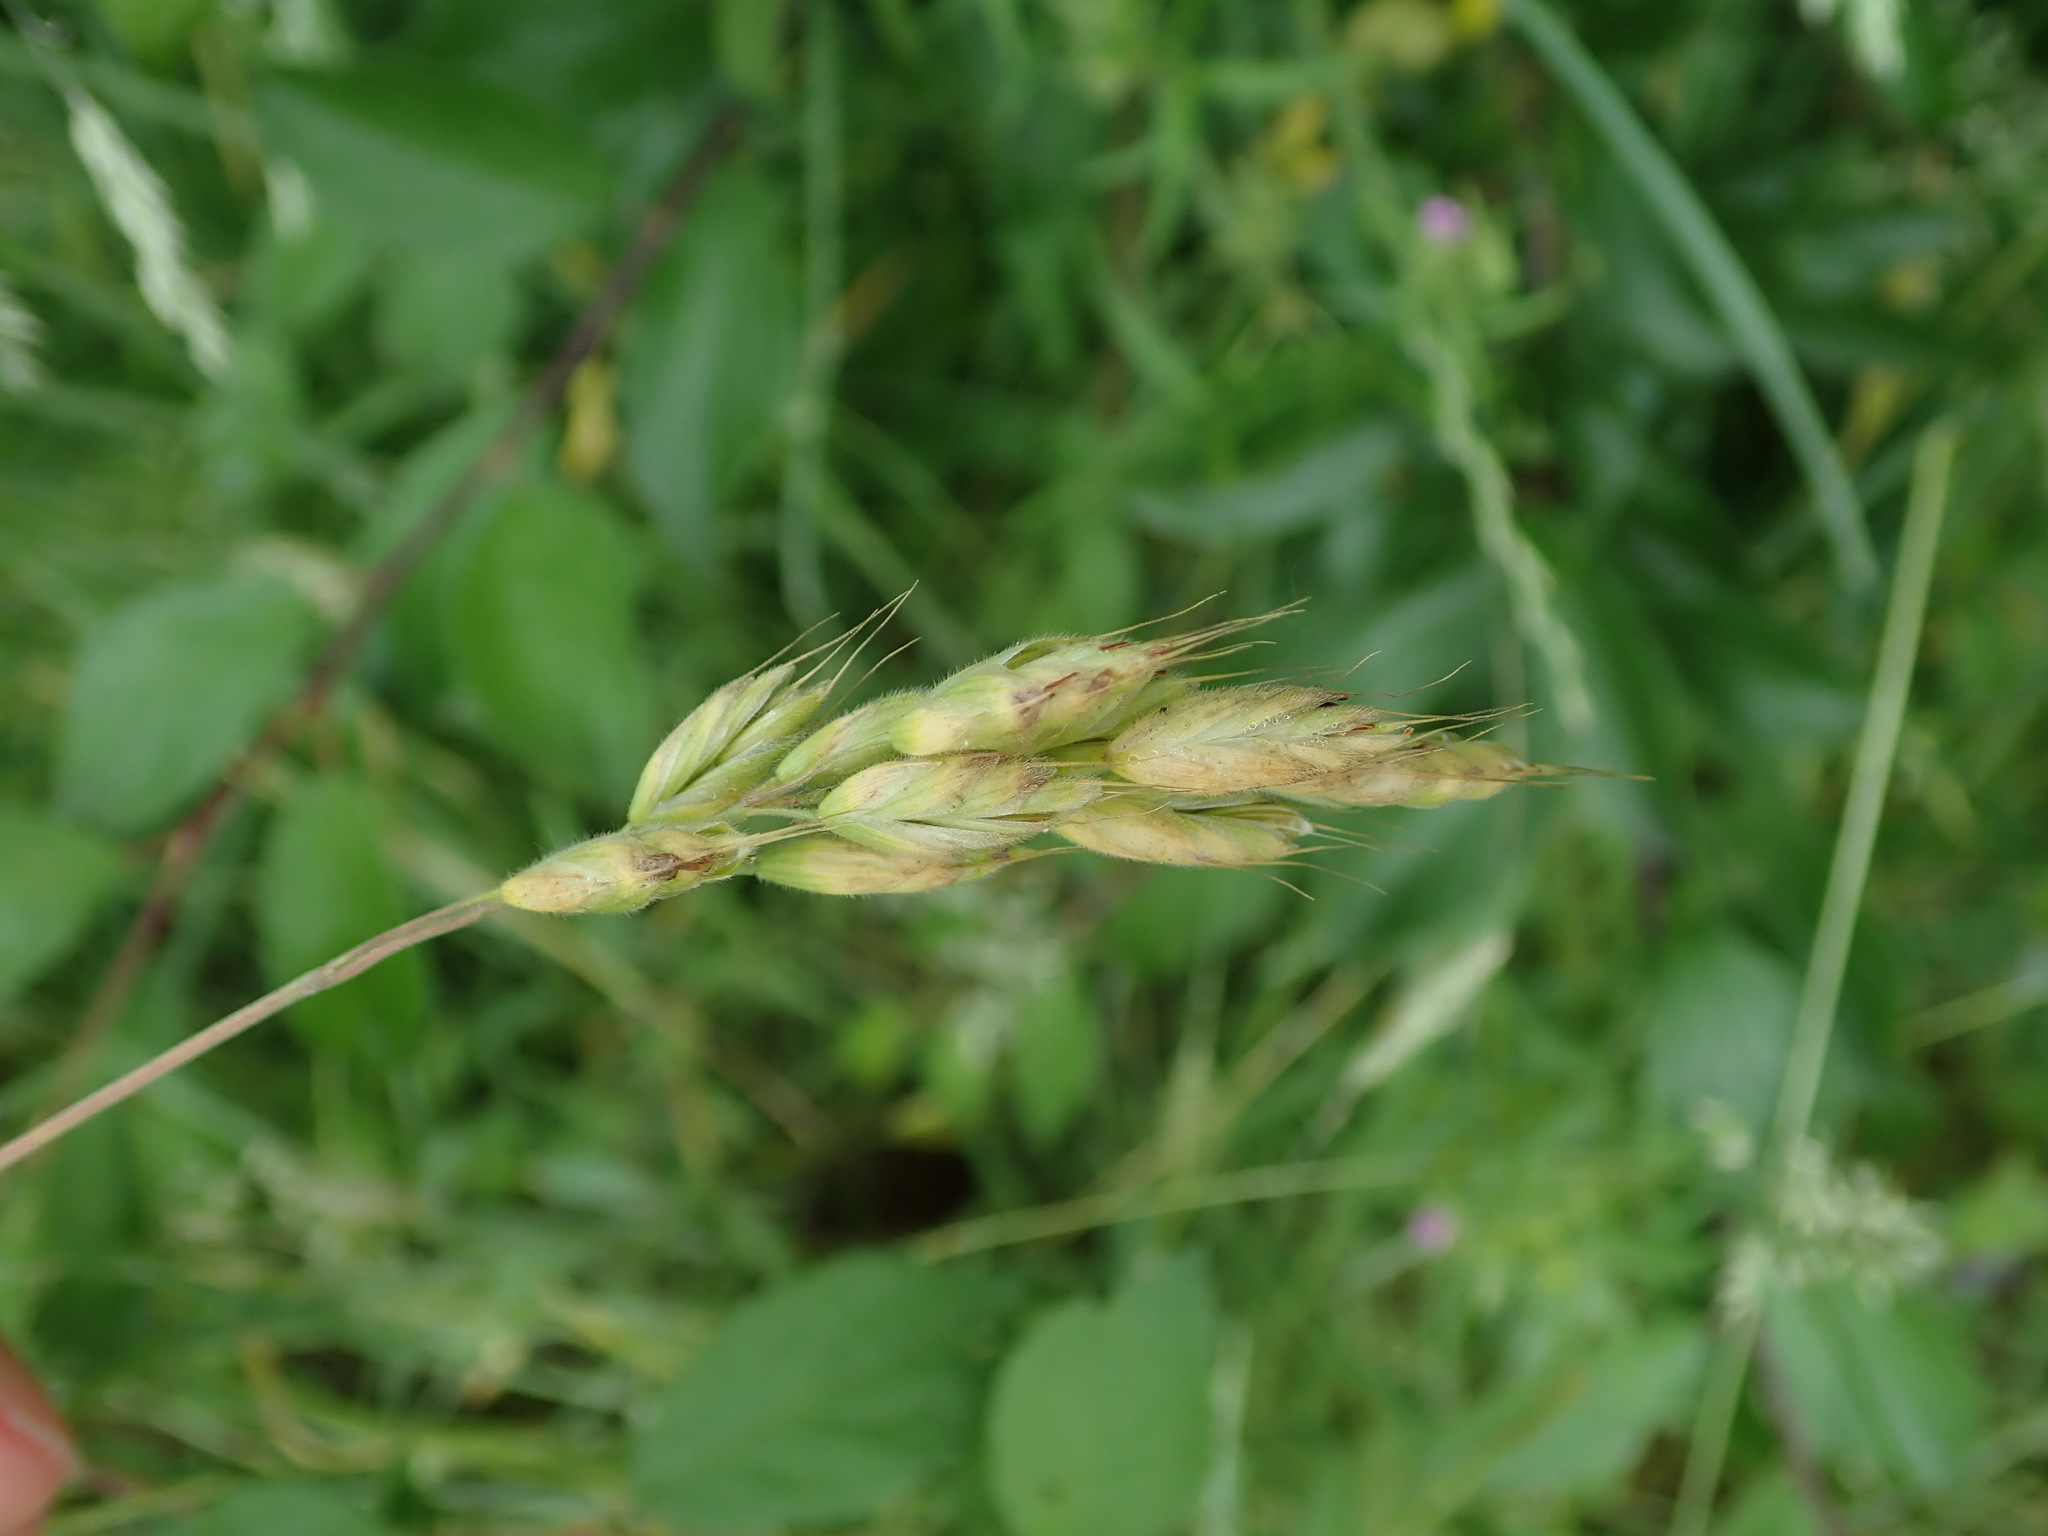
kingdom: Plantae
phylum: Tracheophyta
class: Liliopsida
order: Poales
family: Poaceae
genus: Bromus
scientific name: Bromus hordeaceus
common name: Soft brome
